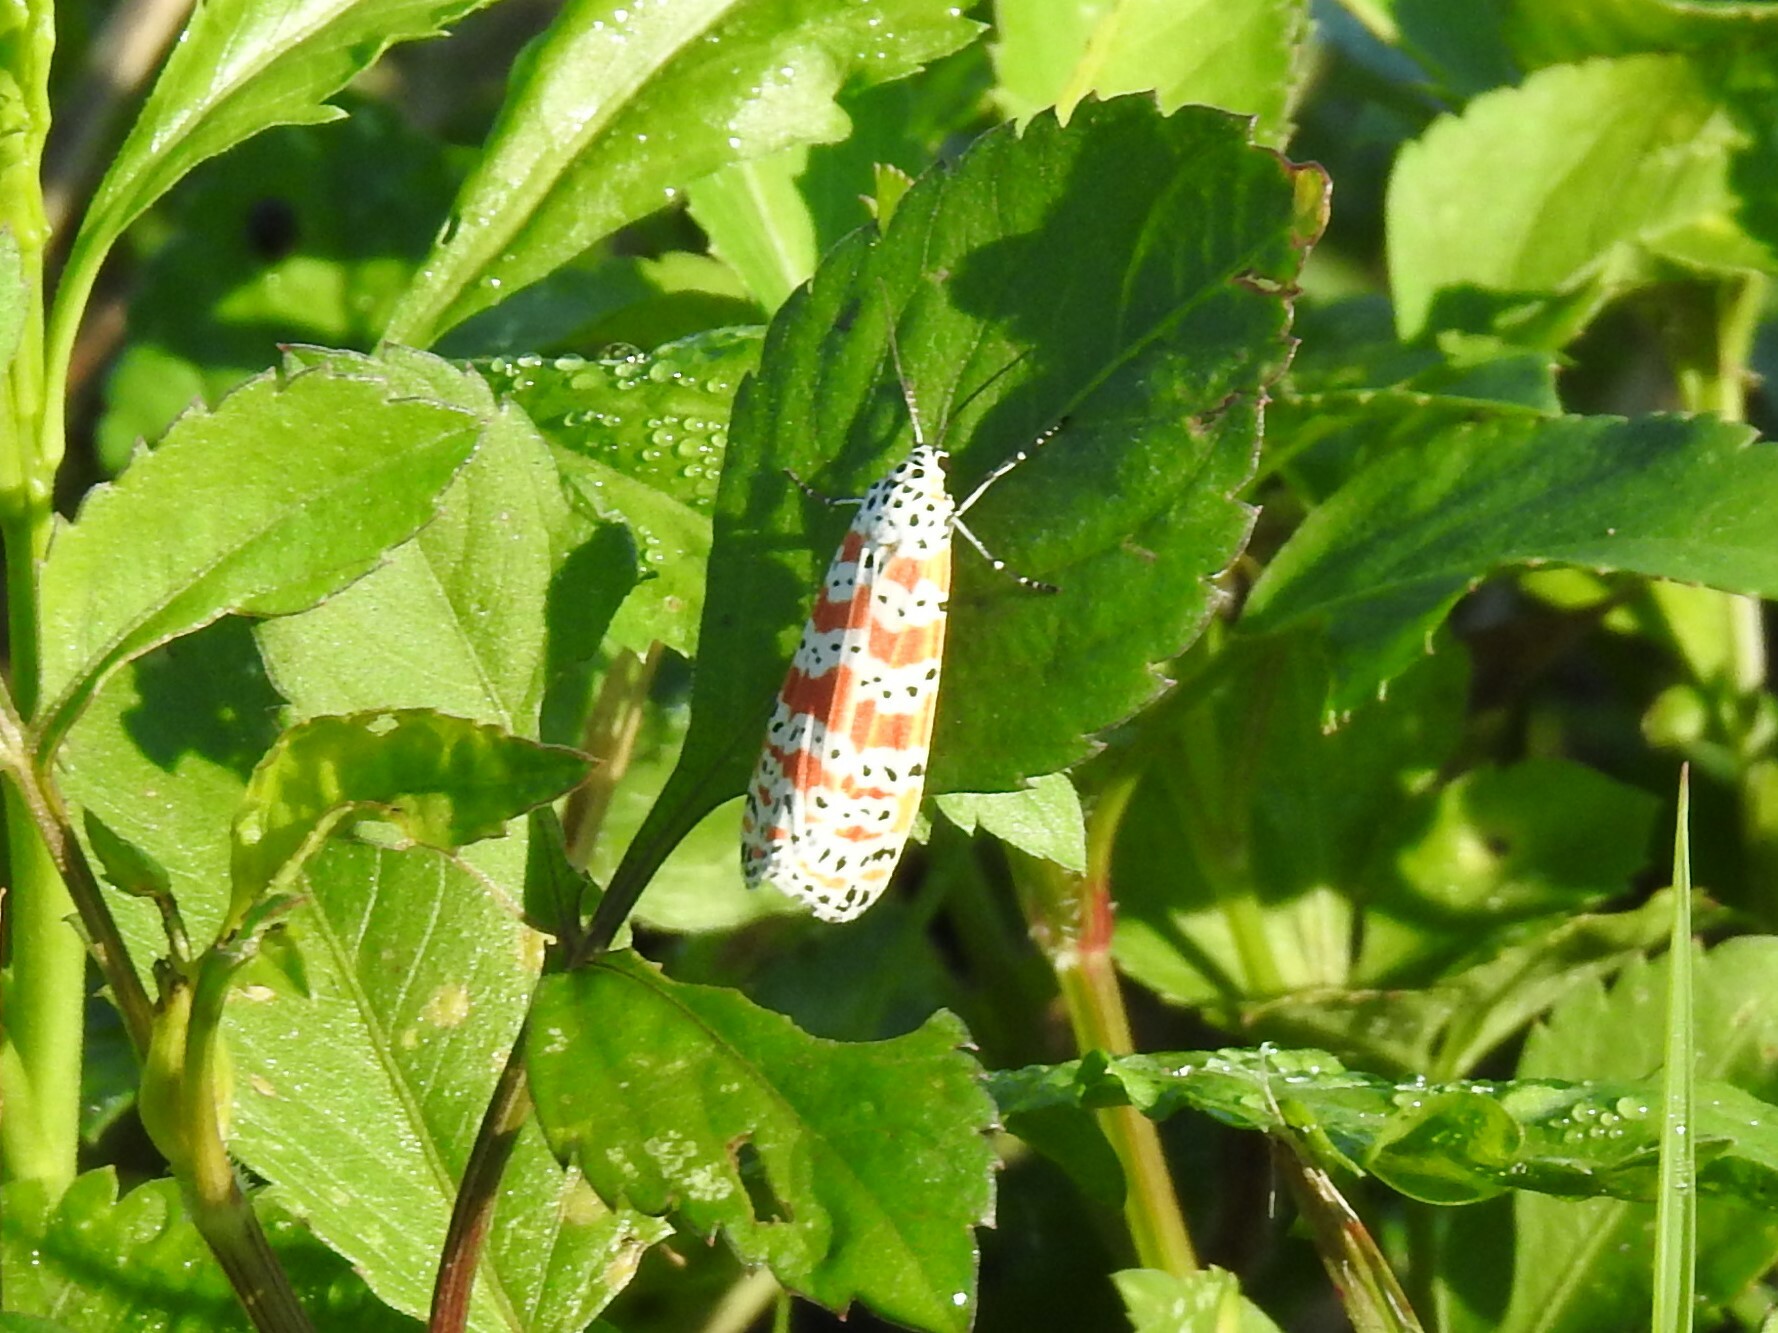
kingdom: Animalia
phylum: Arthropoda
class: Insecta
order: Lepidoptera
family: Erebidae
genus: Utetheisa
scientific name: Utetheisa ornatrix
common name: Beautiful utetheisa
